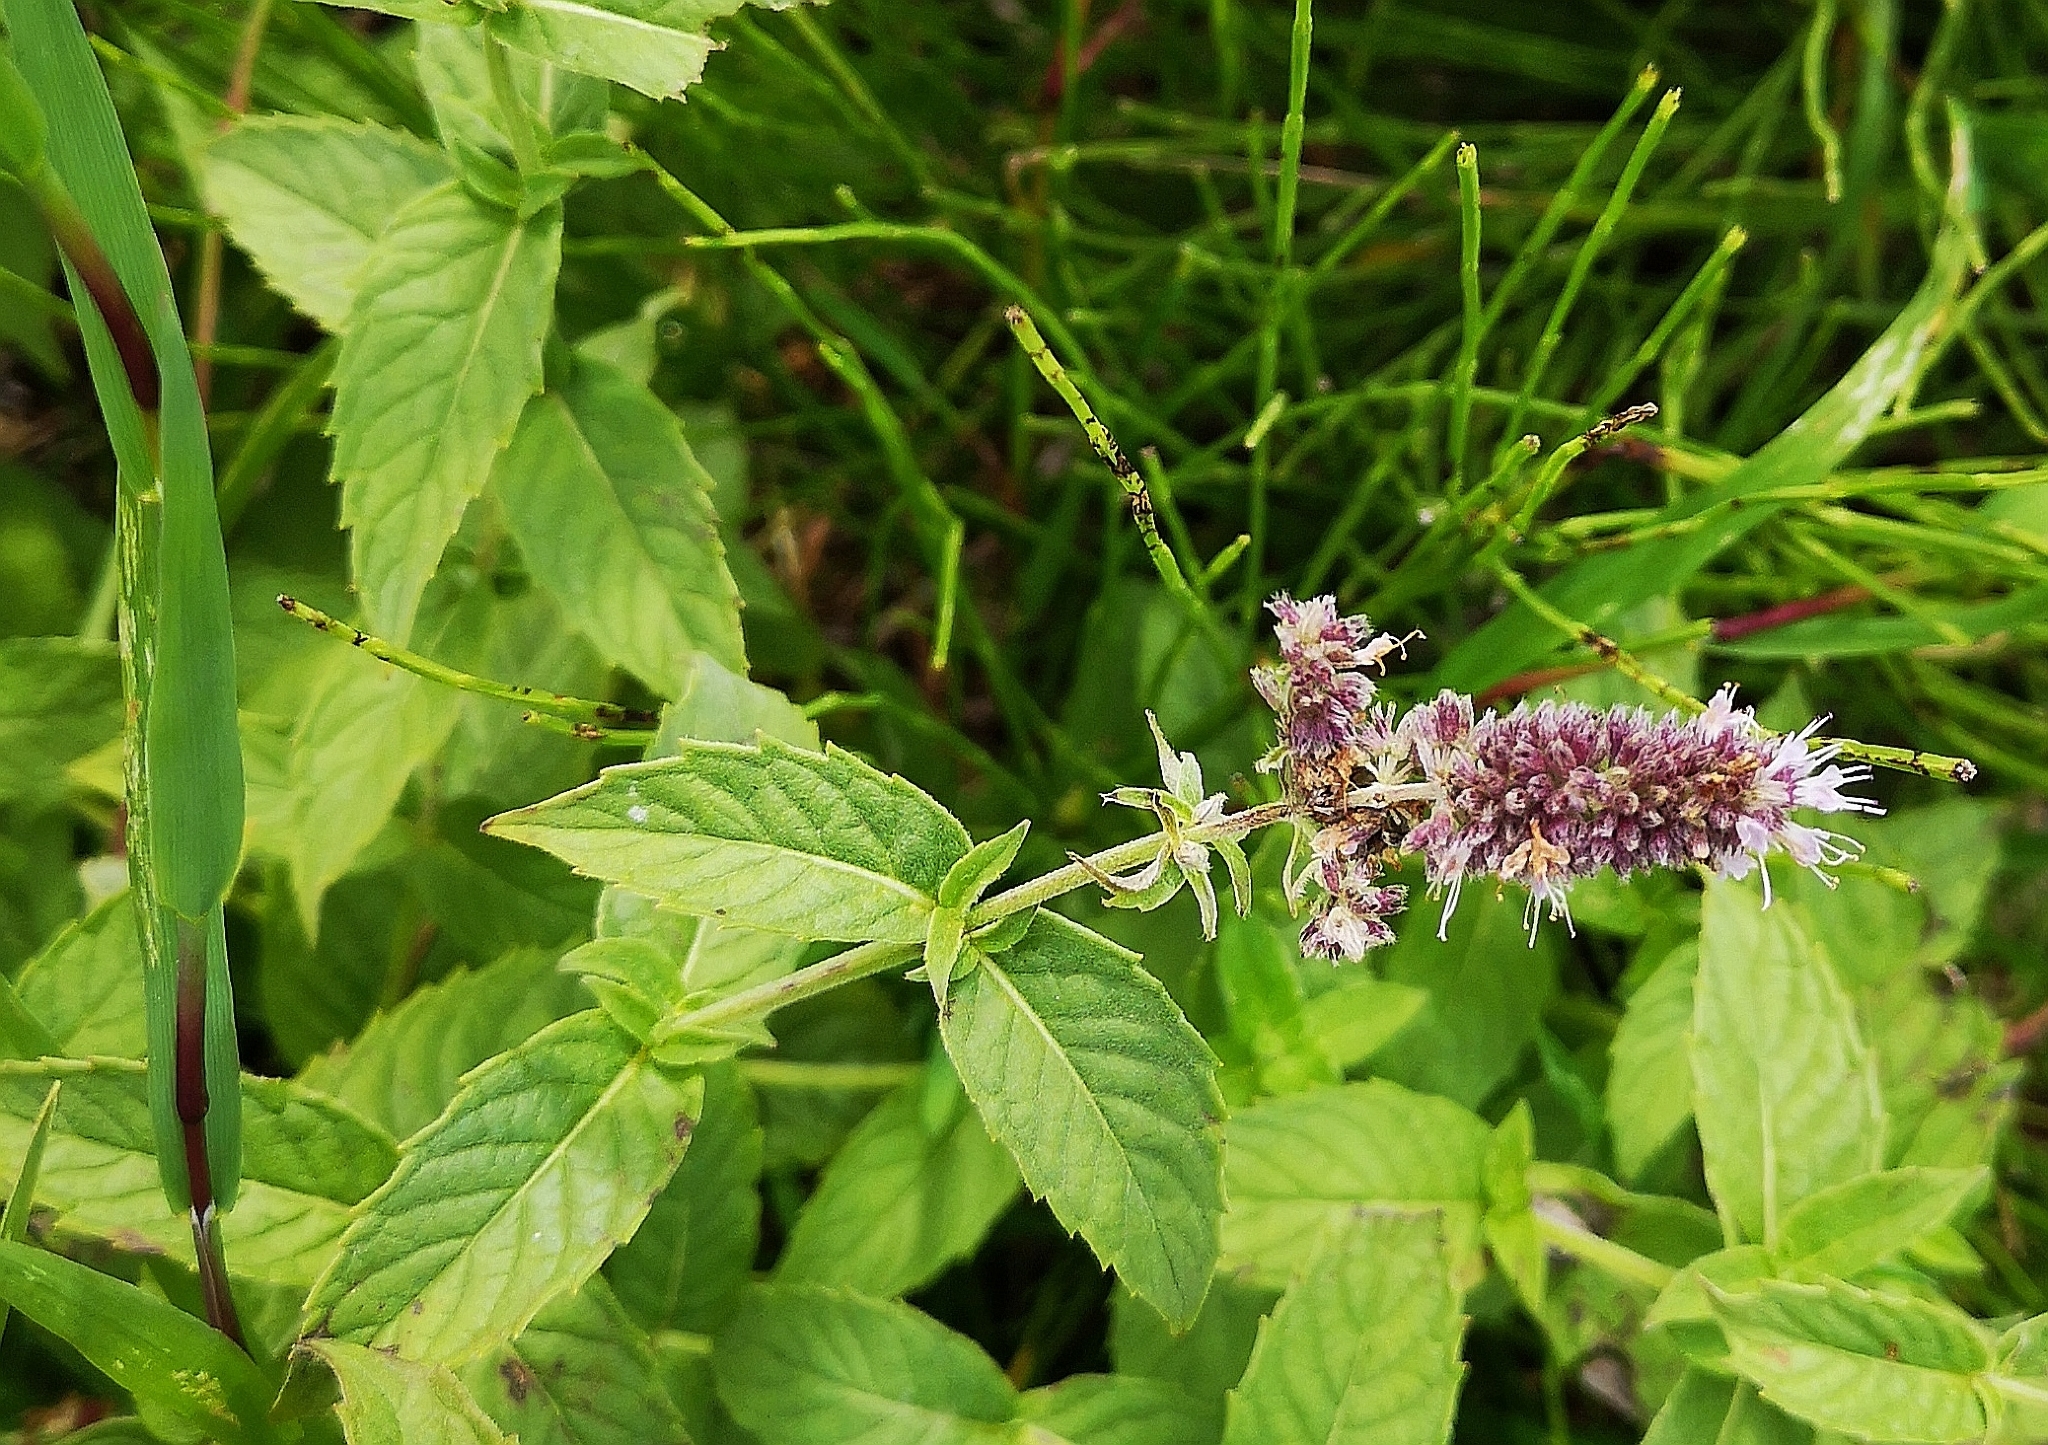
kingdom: Plantae
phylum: Tracheophyta
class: Magnoliopsida
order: Lamiales
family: Lamiaceae
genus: Mentha
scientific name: Mentha longifolia
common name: Horse mint
